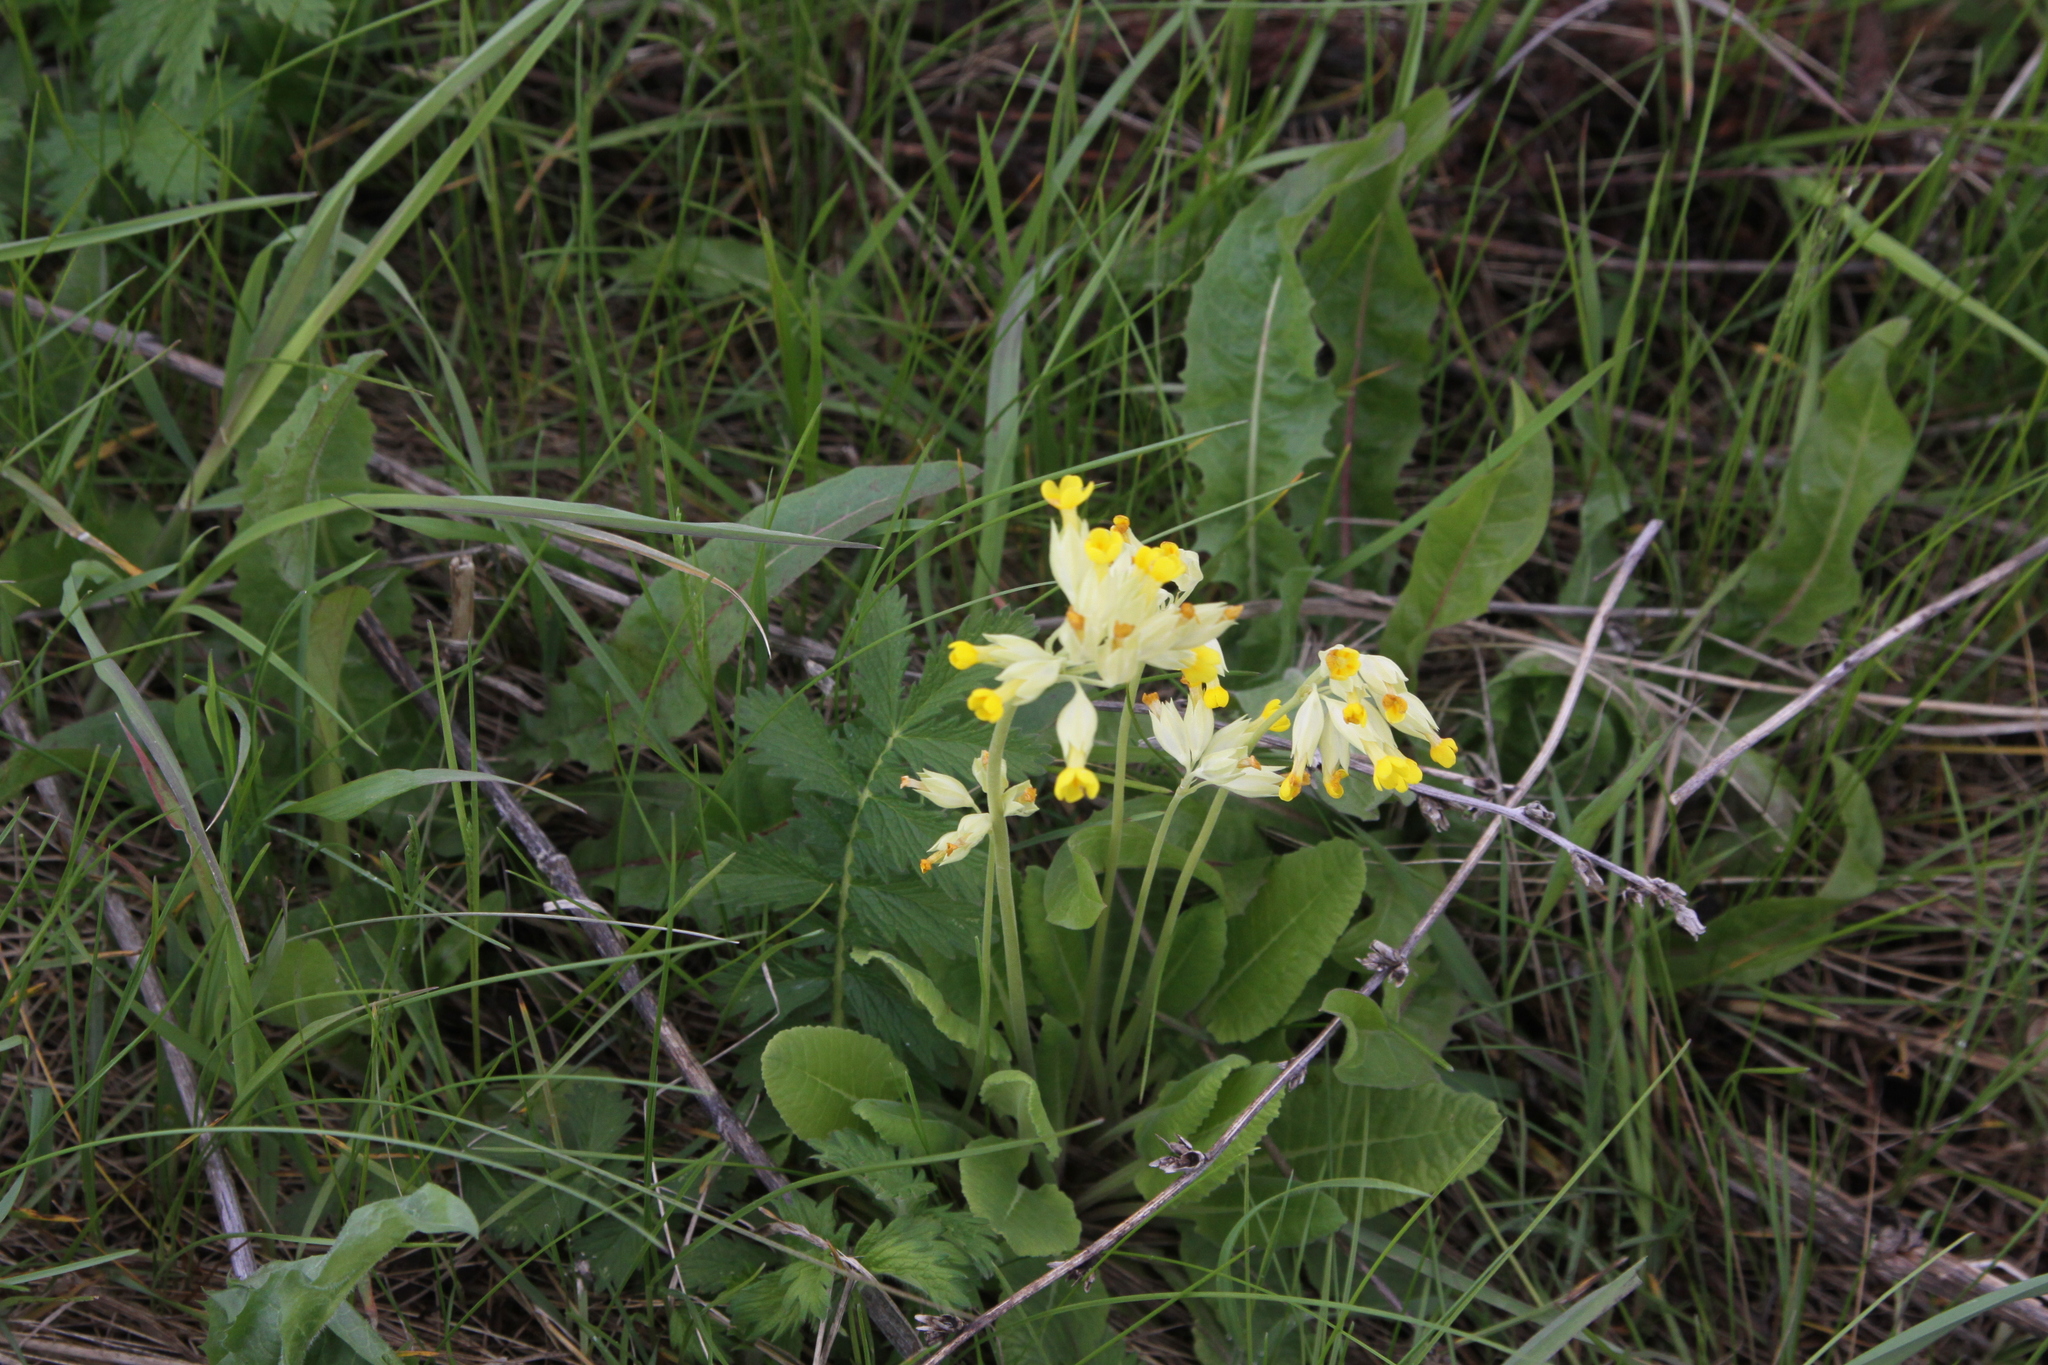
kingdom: Plantae
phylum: Tracheophyta
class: Magnoliopsida
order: Ericales
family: Primulaceae
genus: Primula
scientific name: Primula veris
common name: Cowslip
